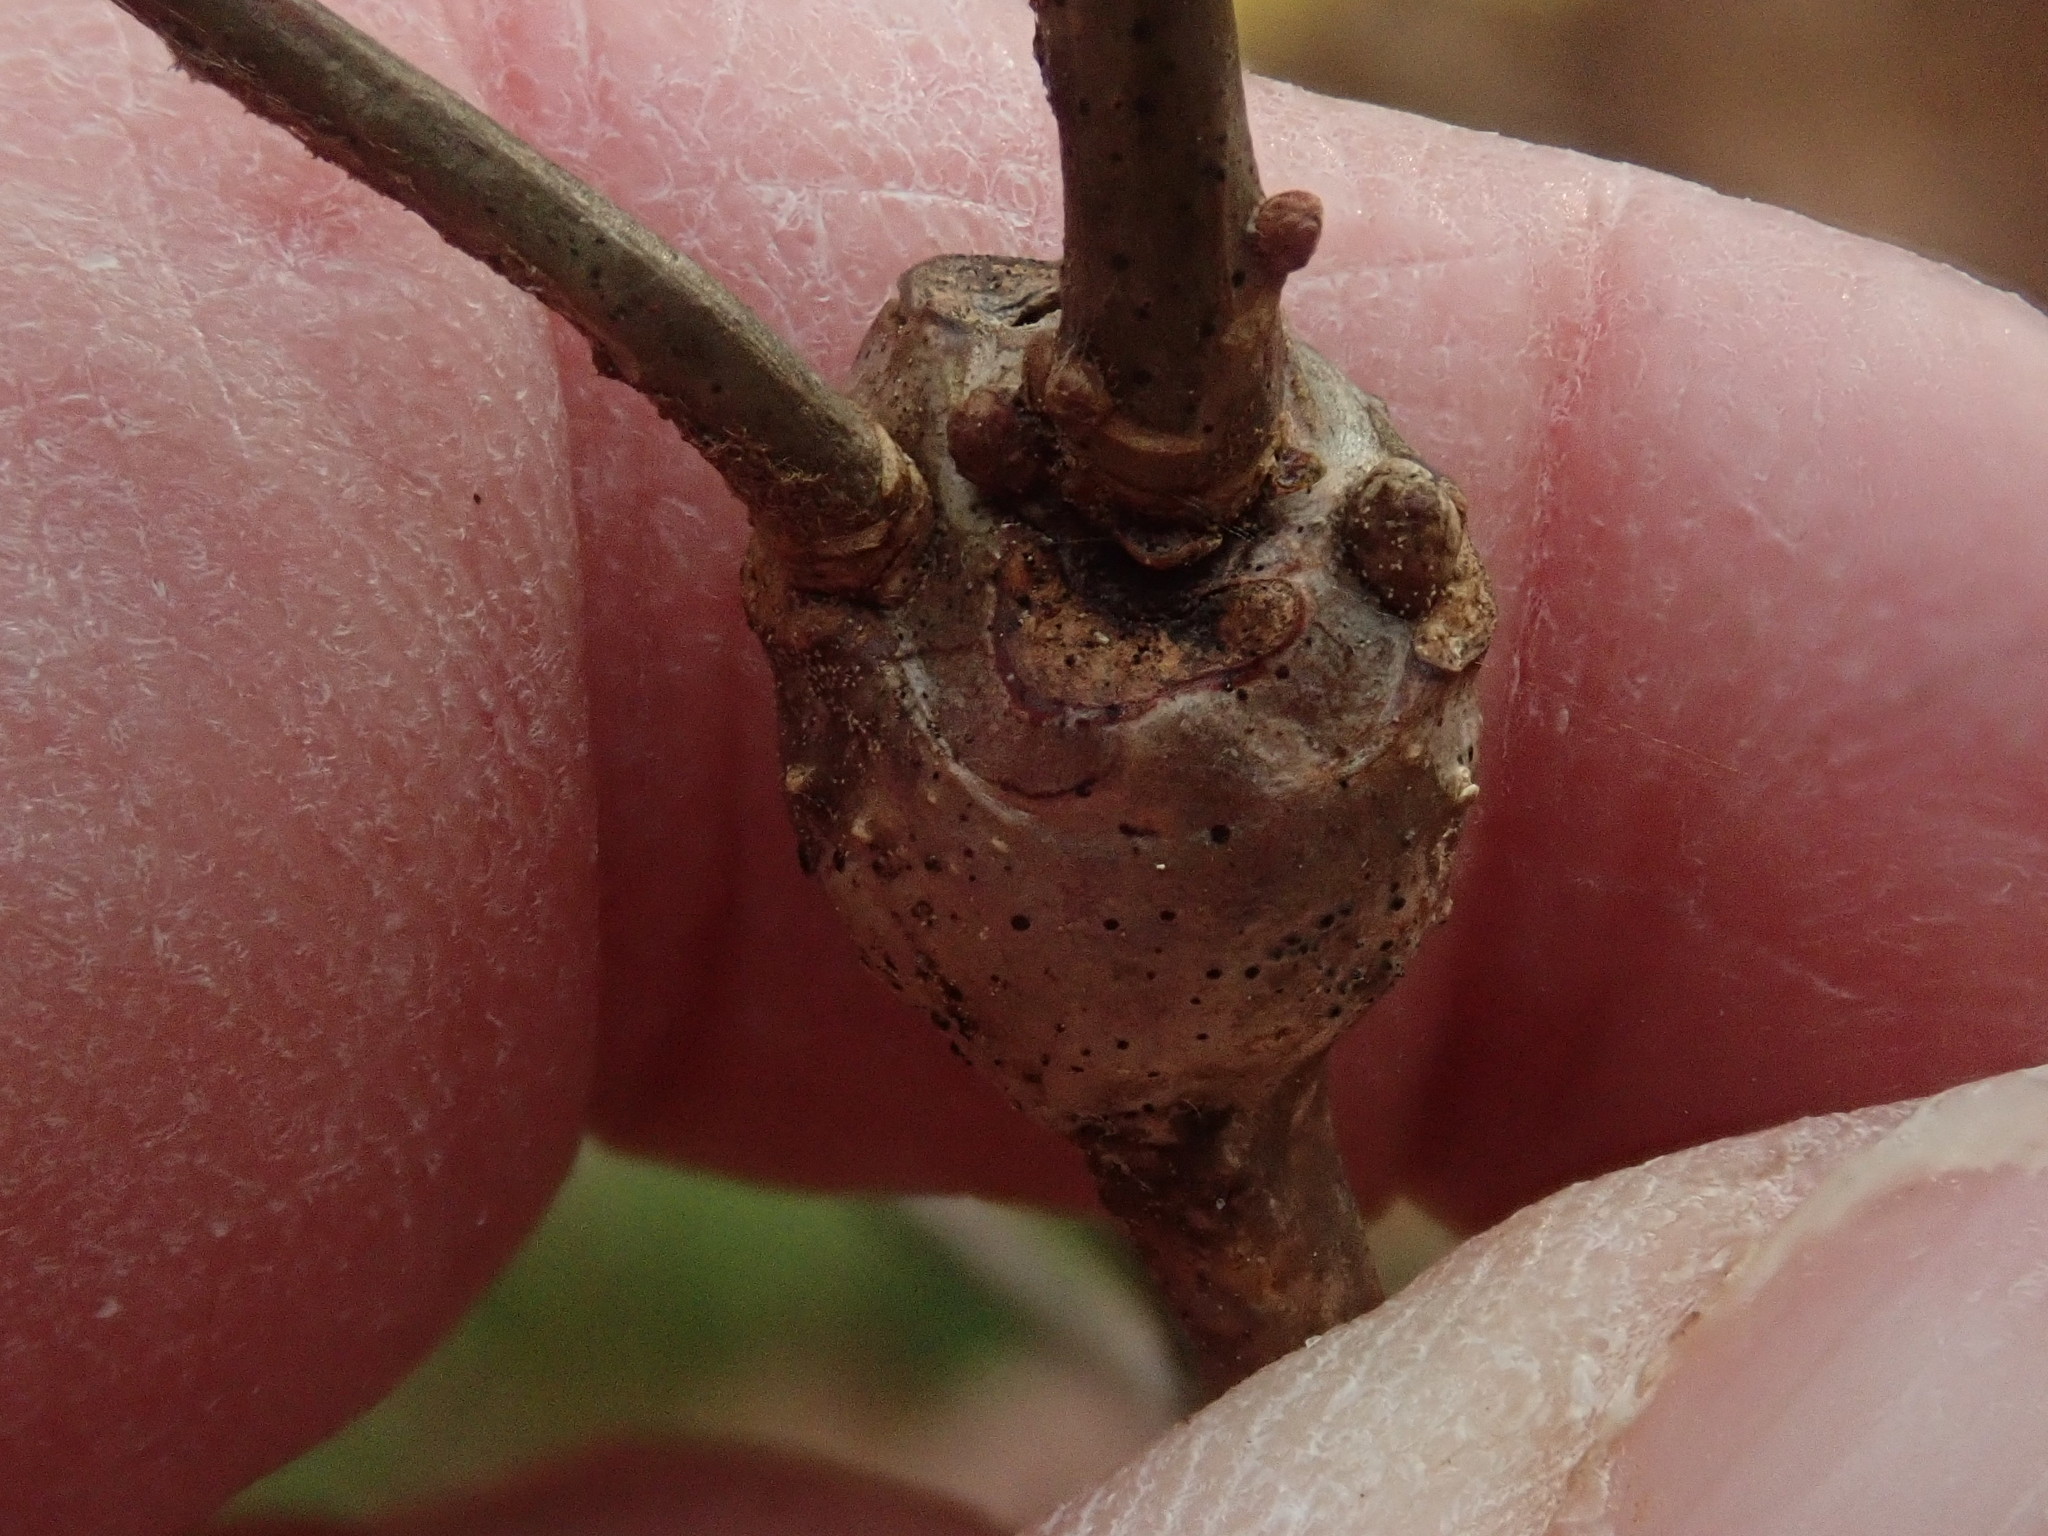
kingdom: Animalia
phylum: Arthropoda
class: Insecta
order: Hymenoptera
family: Cynipidae
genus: Callirhytis
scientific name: Callirhytis clavula
